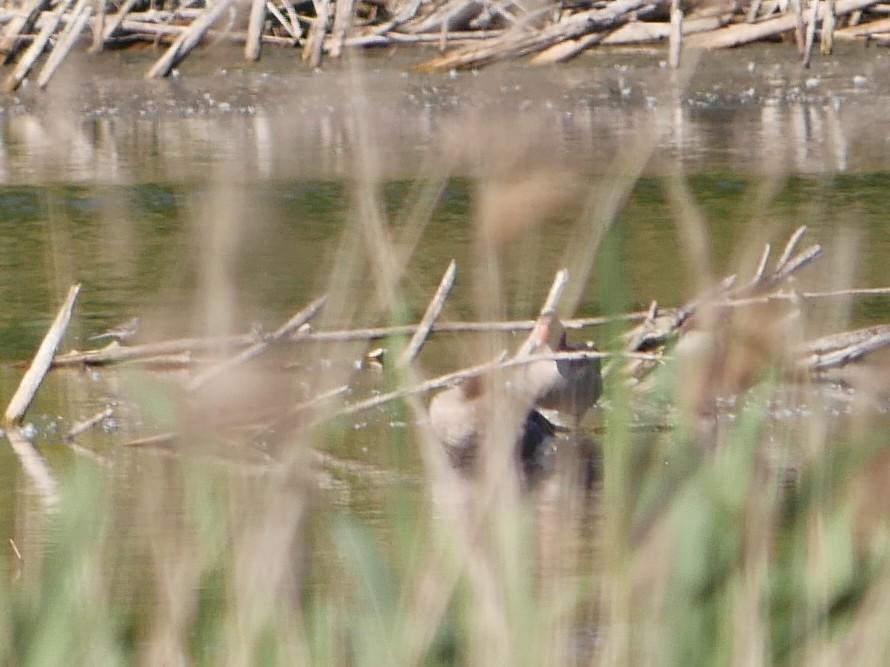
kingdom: Animalia
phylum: Chordata
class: Aves
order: Anseriformes
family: Anatidae
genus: Anser
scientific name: Anser anser
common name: Greylag goose
